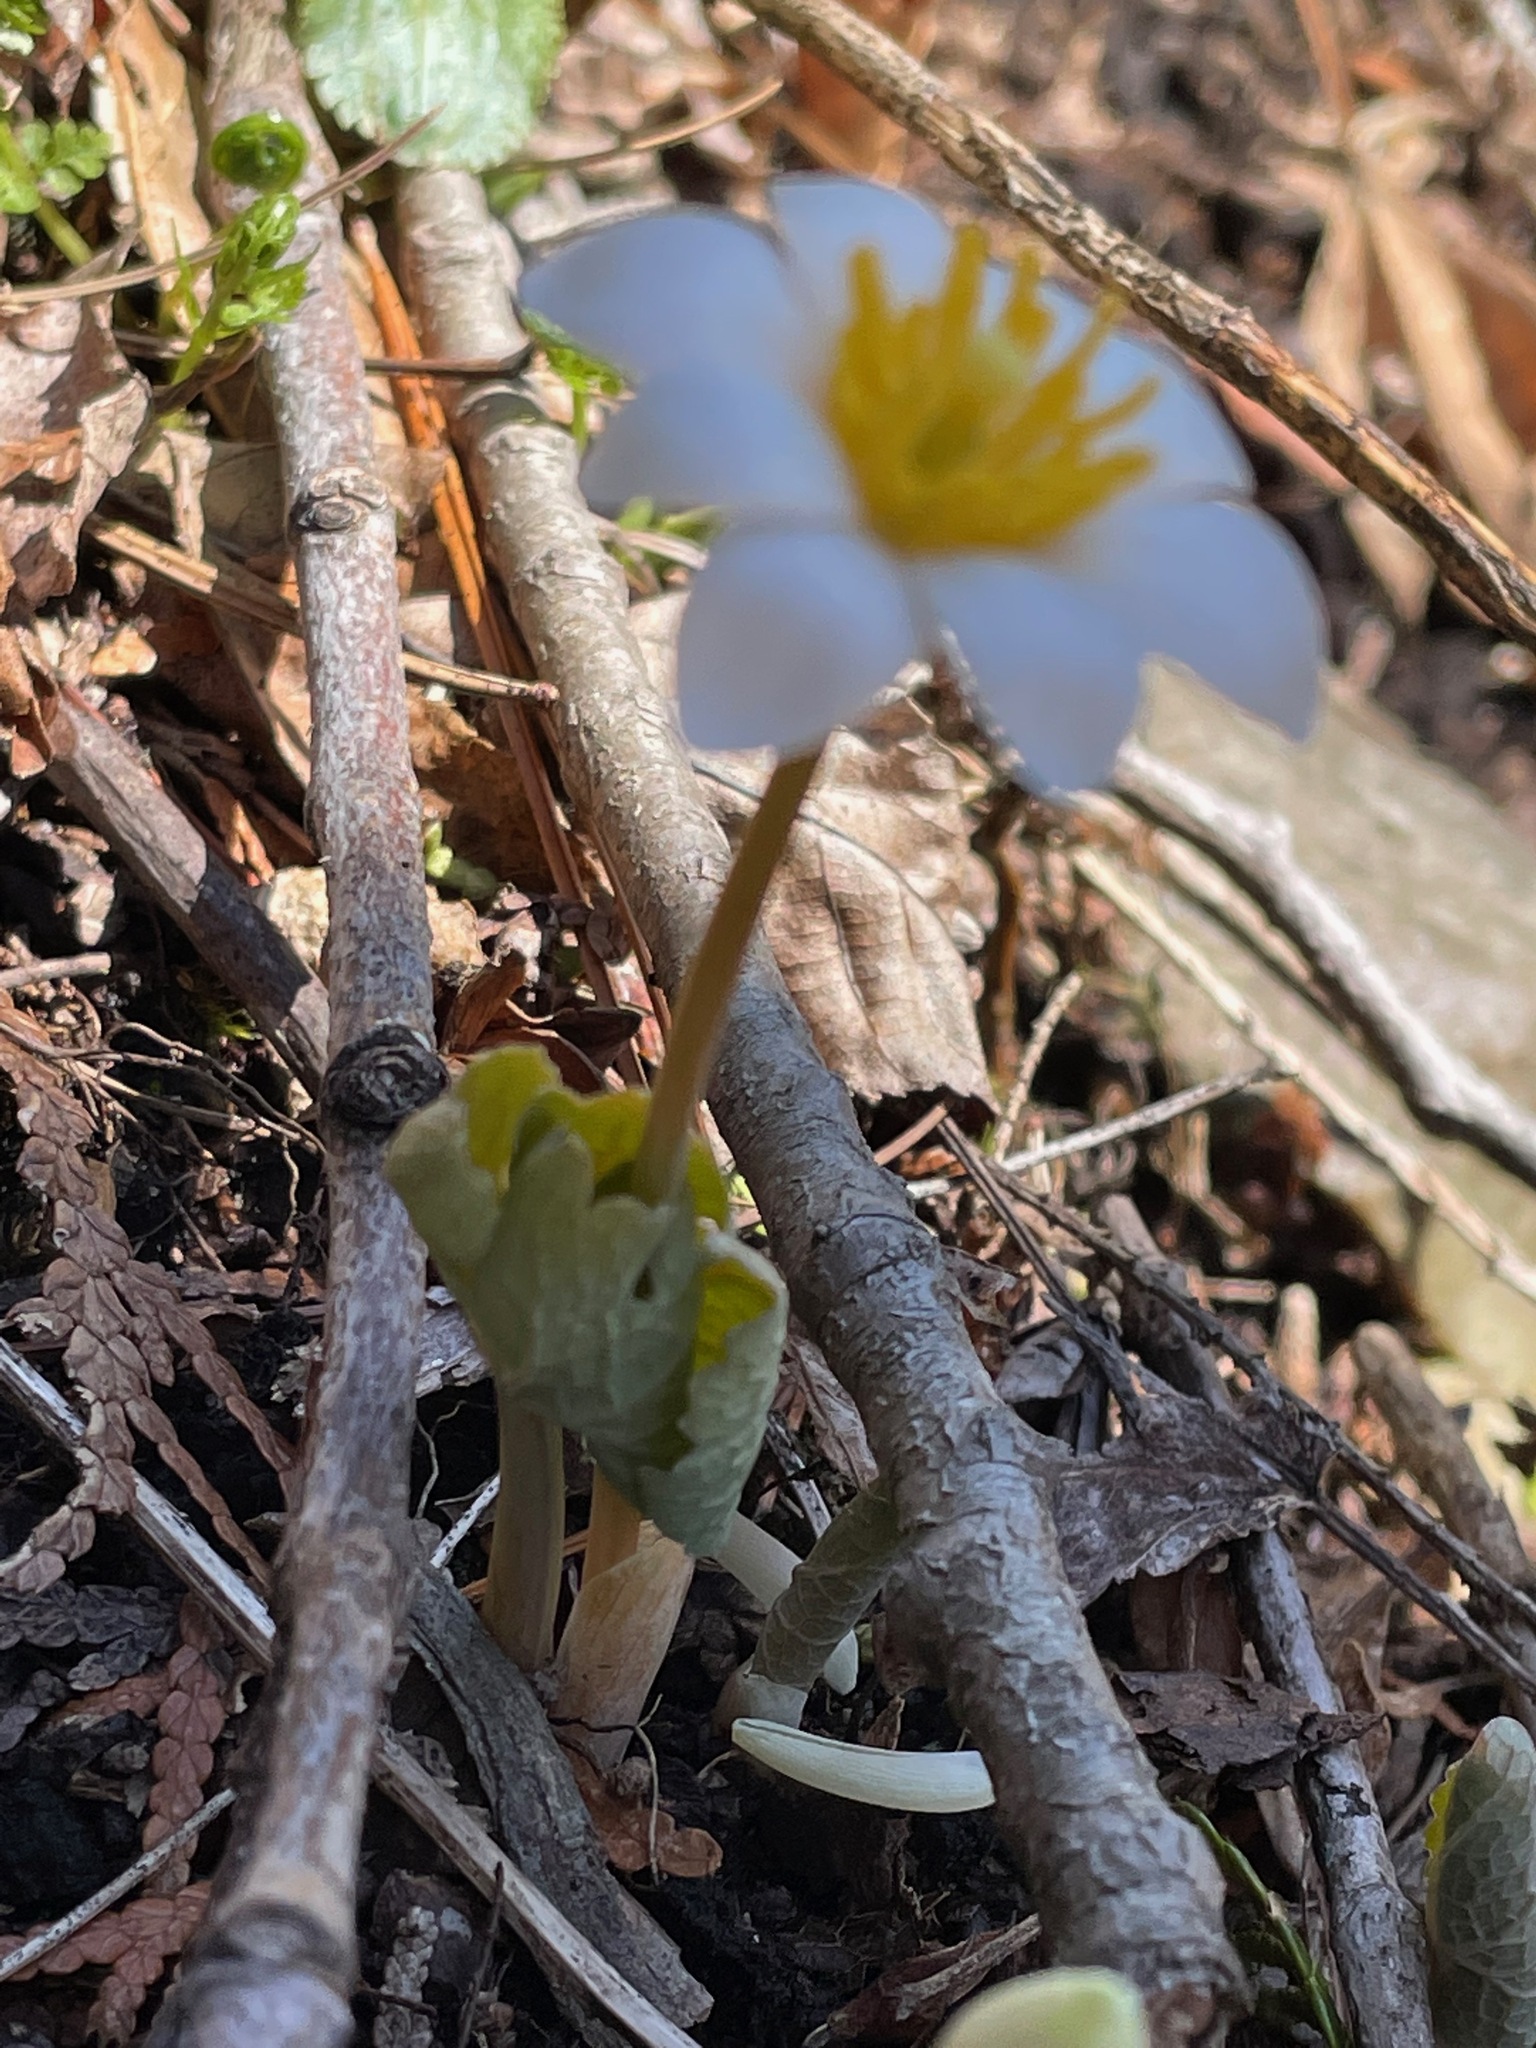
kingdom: Plantae
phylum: Tracheophyta
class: Magnoliopsida
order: Ranunculales
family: Papaveraceae
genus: Sanguinaria
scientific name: Sanguinaria canadensis
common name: Bloodroot
